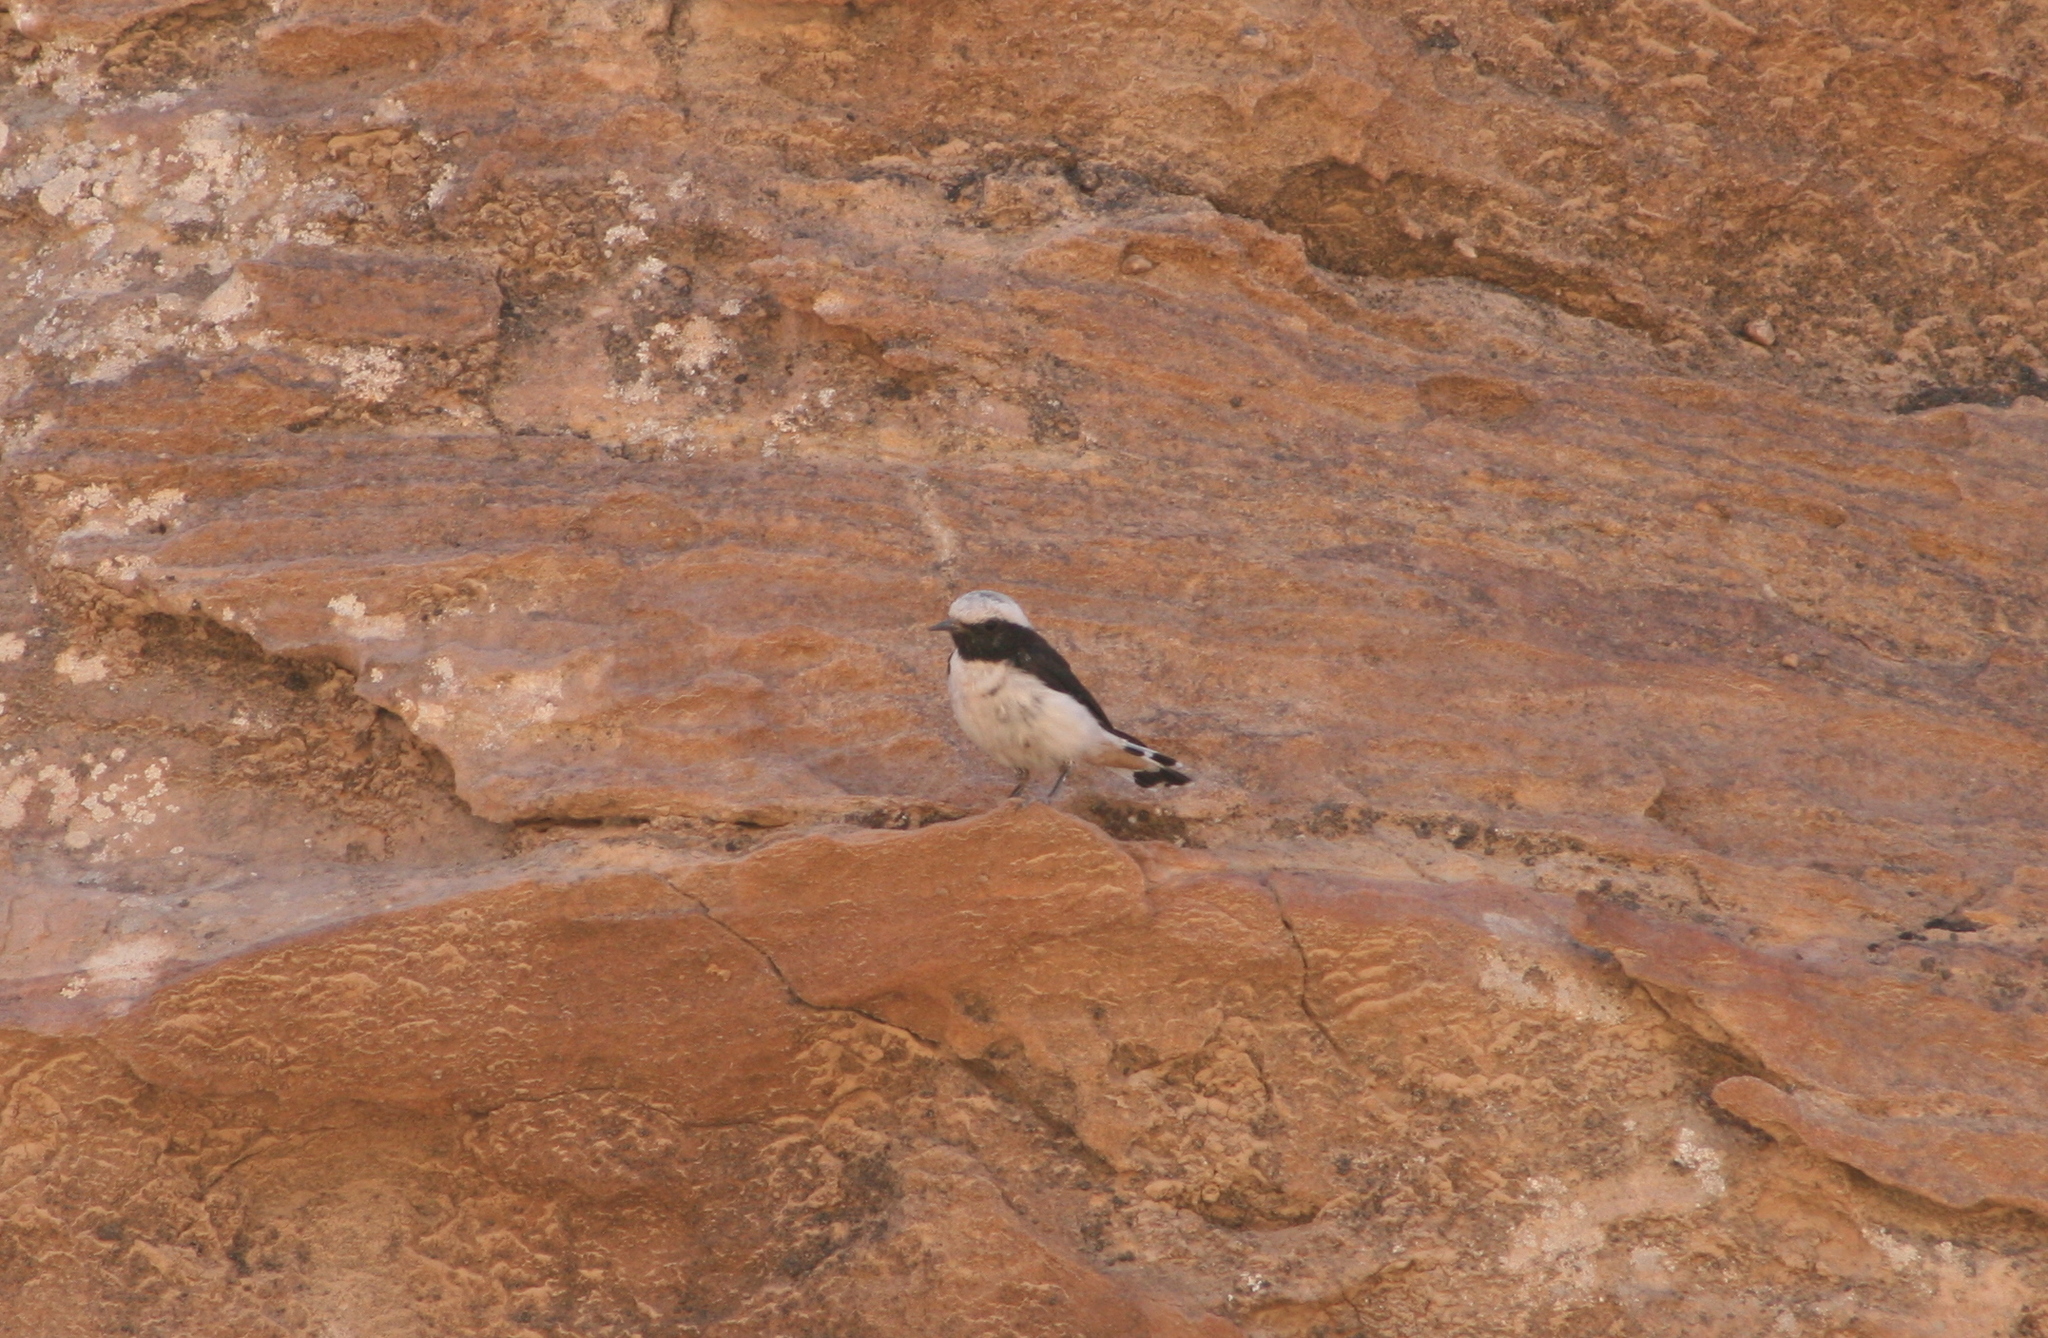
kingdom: Animalia
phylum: Chordata
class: Aves
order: Passeriformes
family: Muscicapidae
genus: Oenanthe
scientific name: Oenanthe lugens
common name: Mourning wheatear
